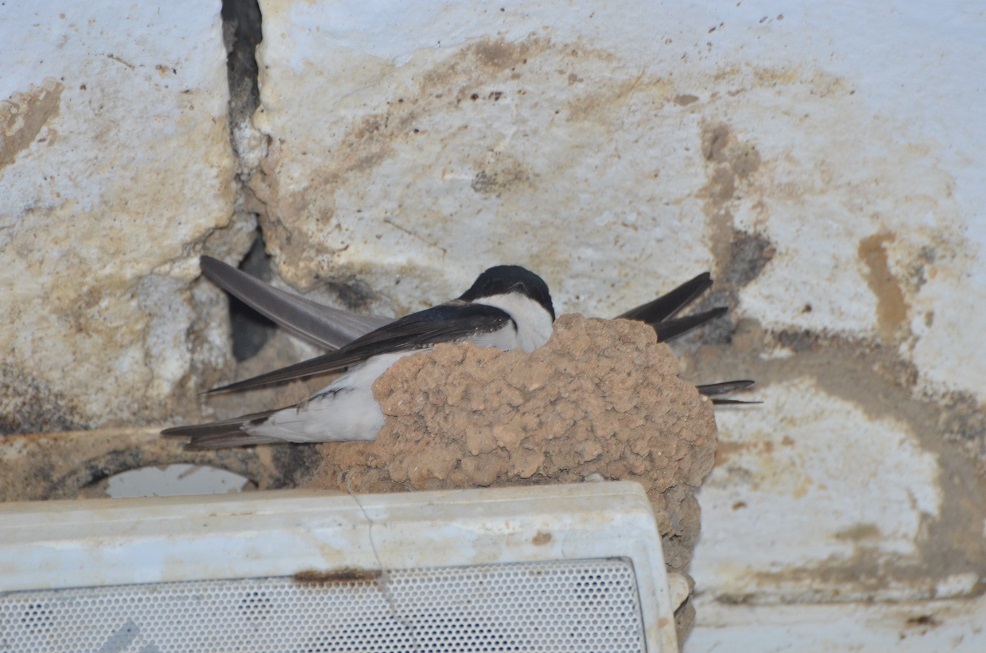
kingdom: Animalia
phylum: Chordata
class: Aves
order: Passeriformes
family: Hirundinidae
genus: Delichon
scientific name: Delichon urbicum
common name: Common house martin
